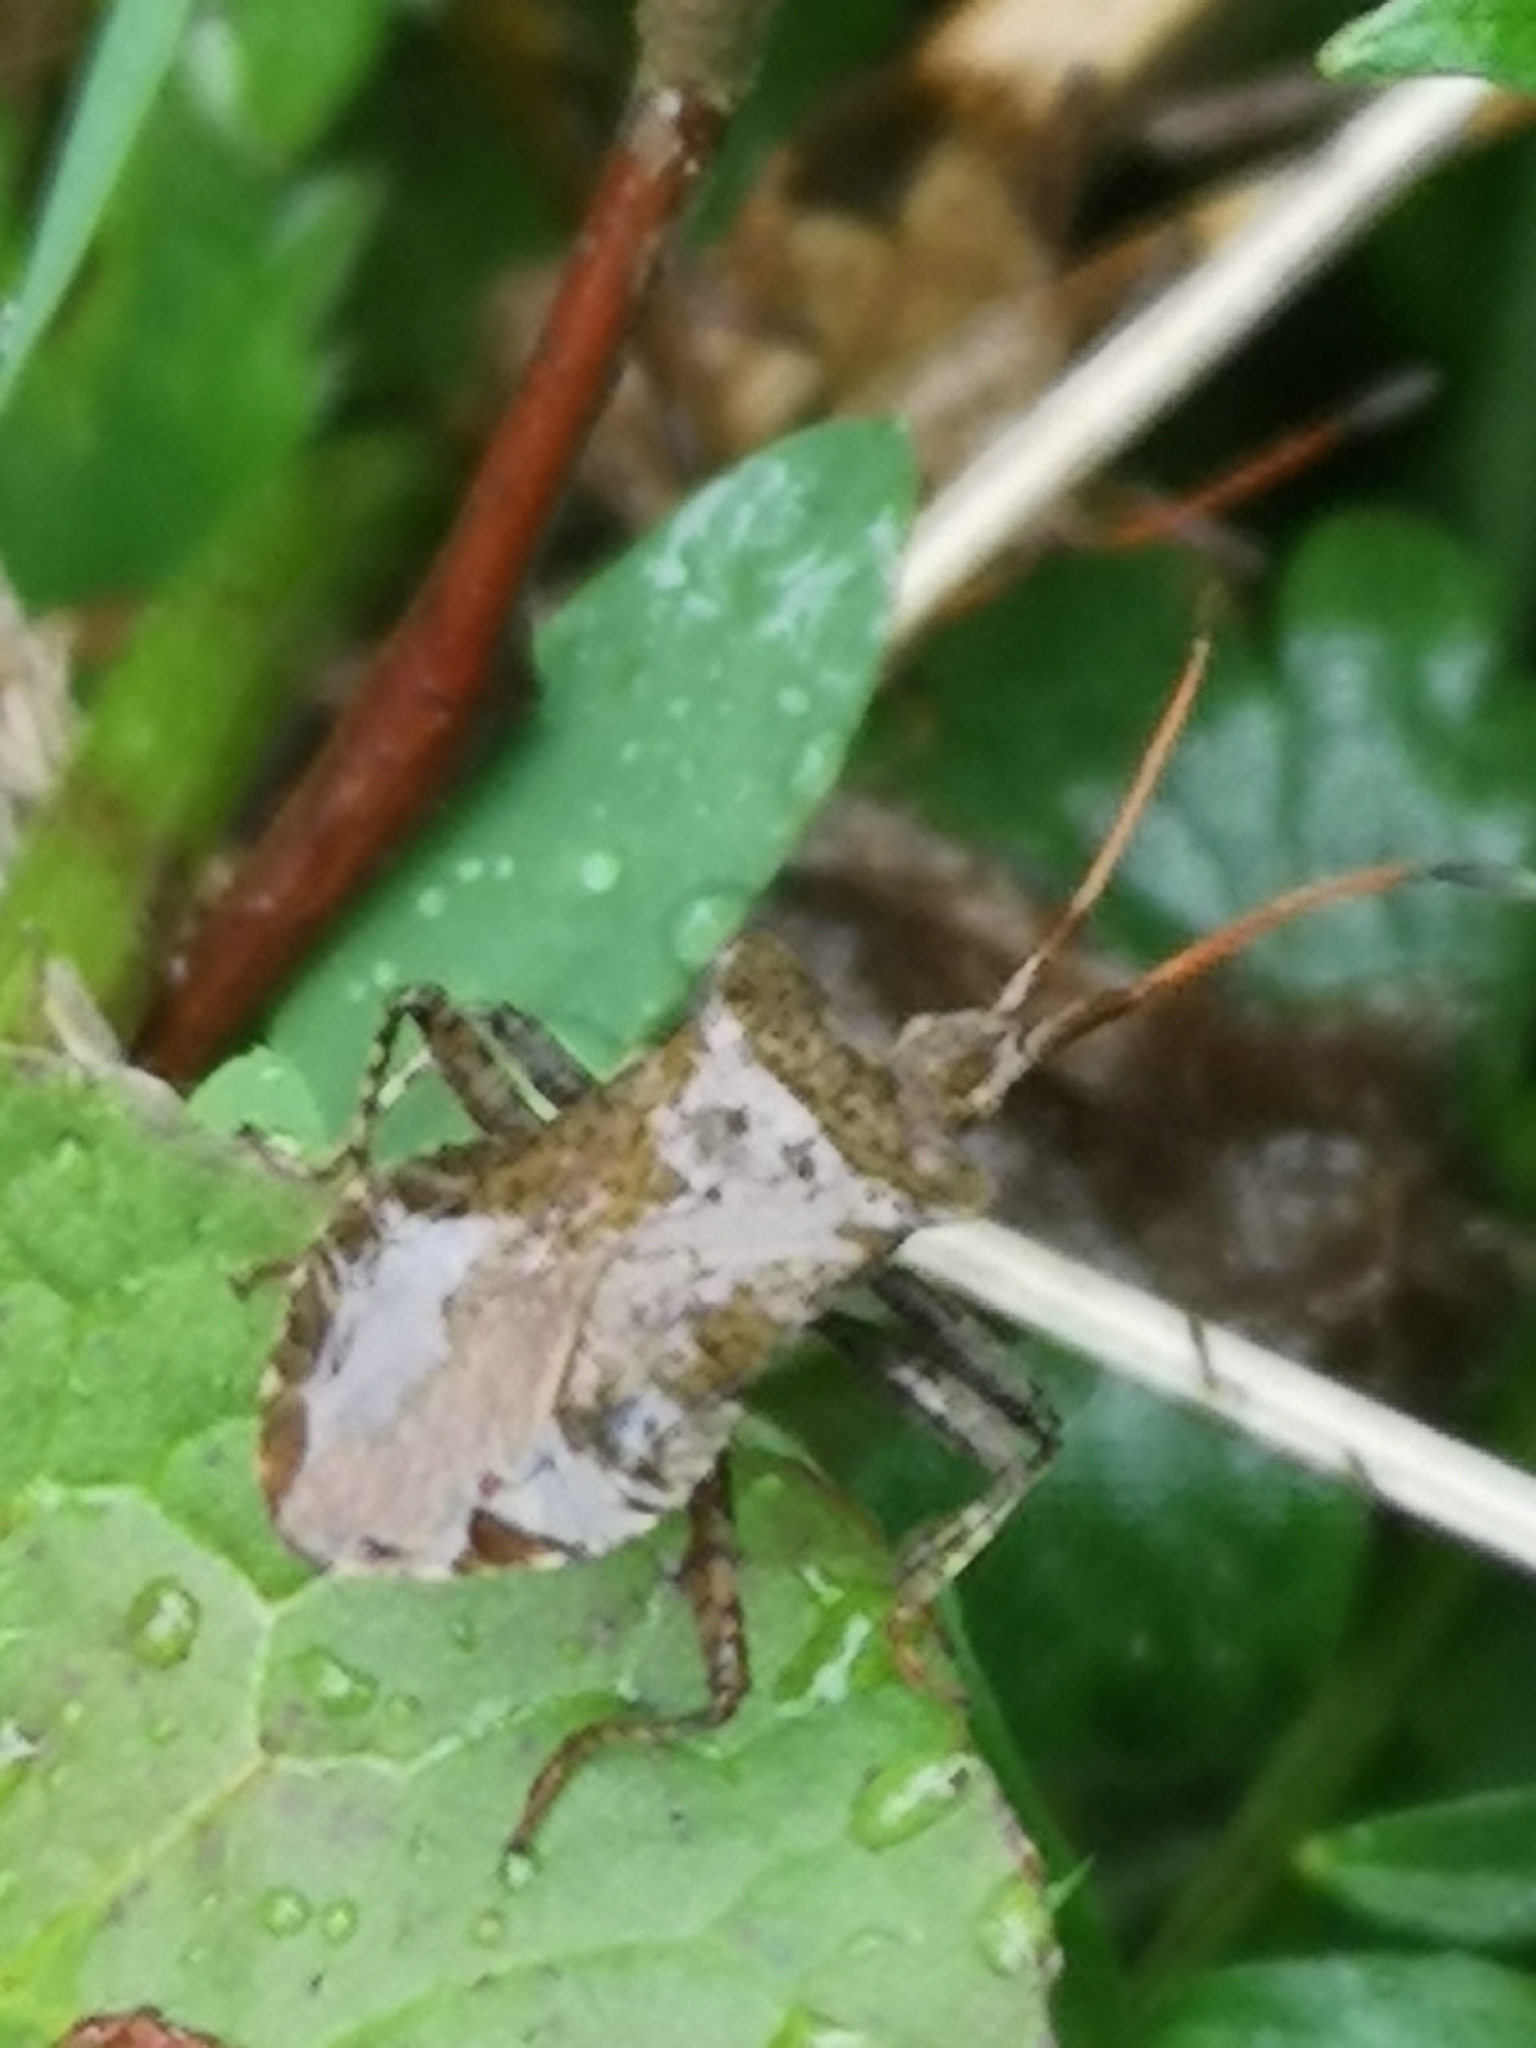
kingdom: Animalia
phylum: Arthropoda
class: Insecta
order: Hemiptera
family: Coreidae
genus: Coreus
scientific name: Coreus marginatus
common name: Dock bug
